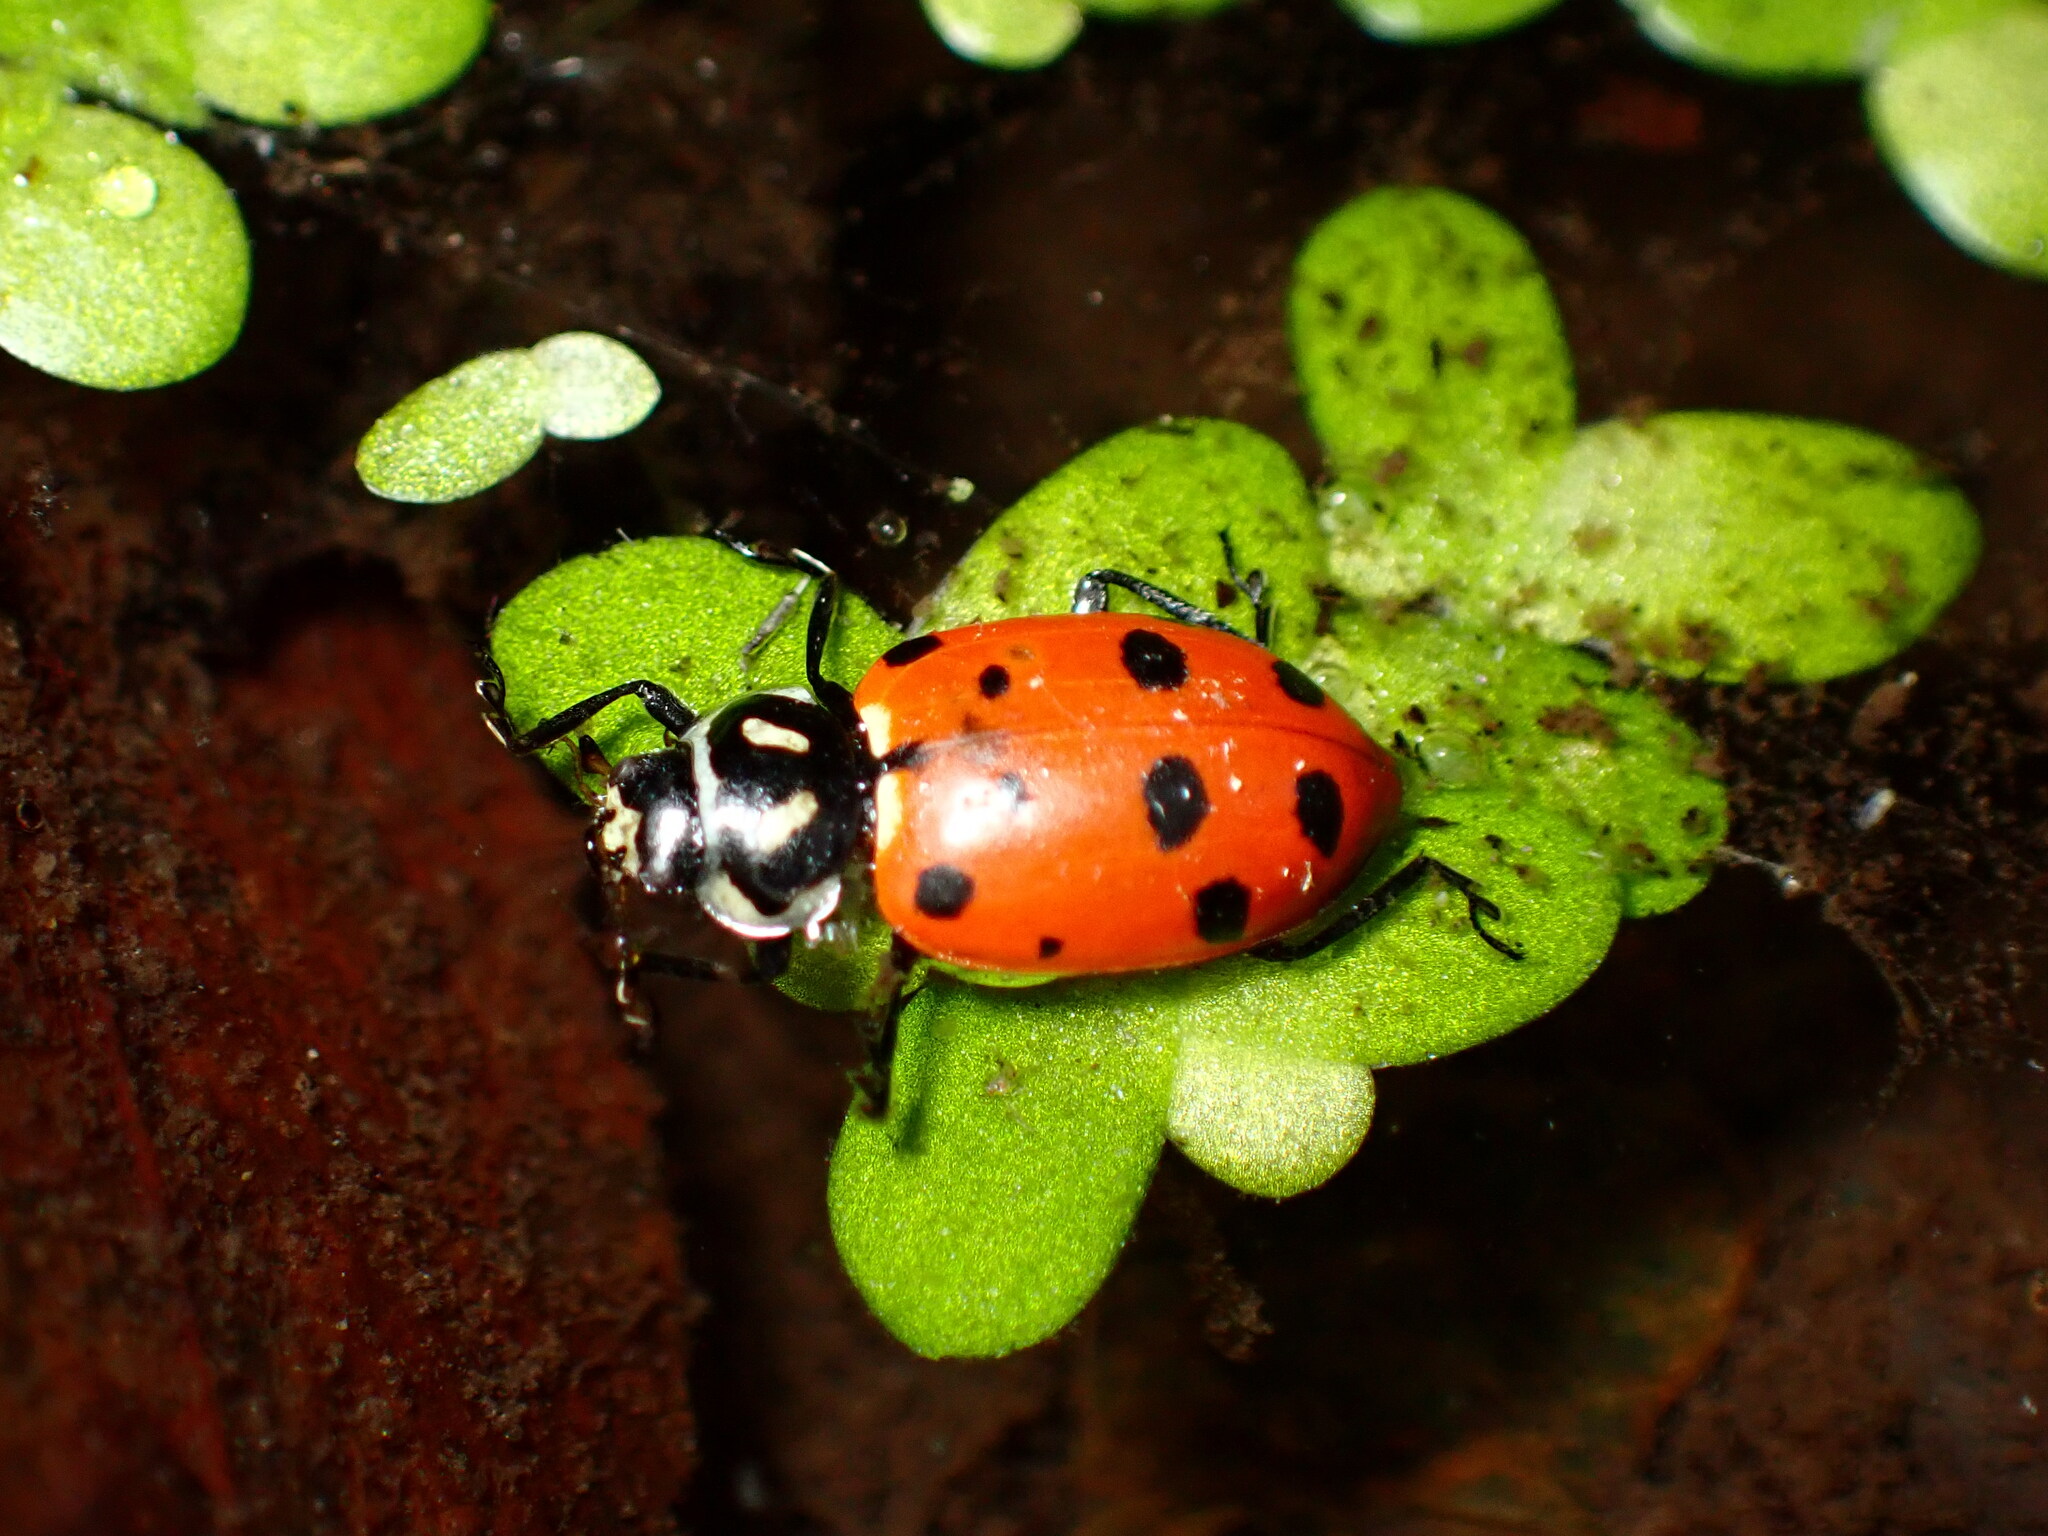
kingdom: Animalia
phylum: Arthropoda
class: Insecta
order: Coleoptera
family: Coccinellidae
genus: Hippodamia
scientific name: Hippodamia convergens
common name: Convergent lady beetle
